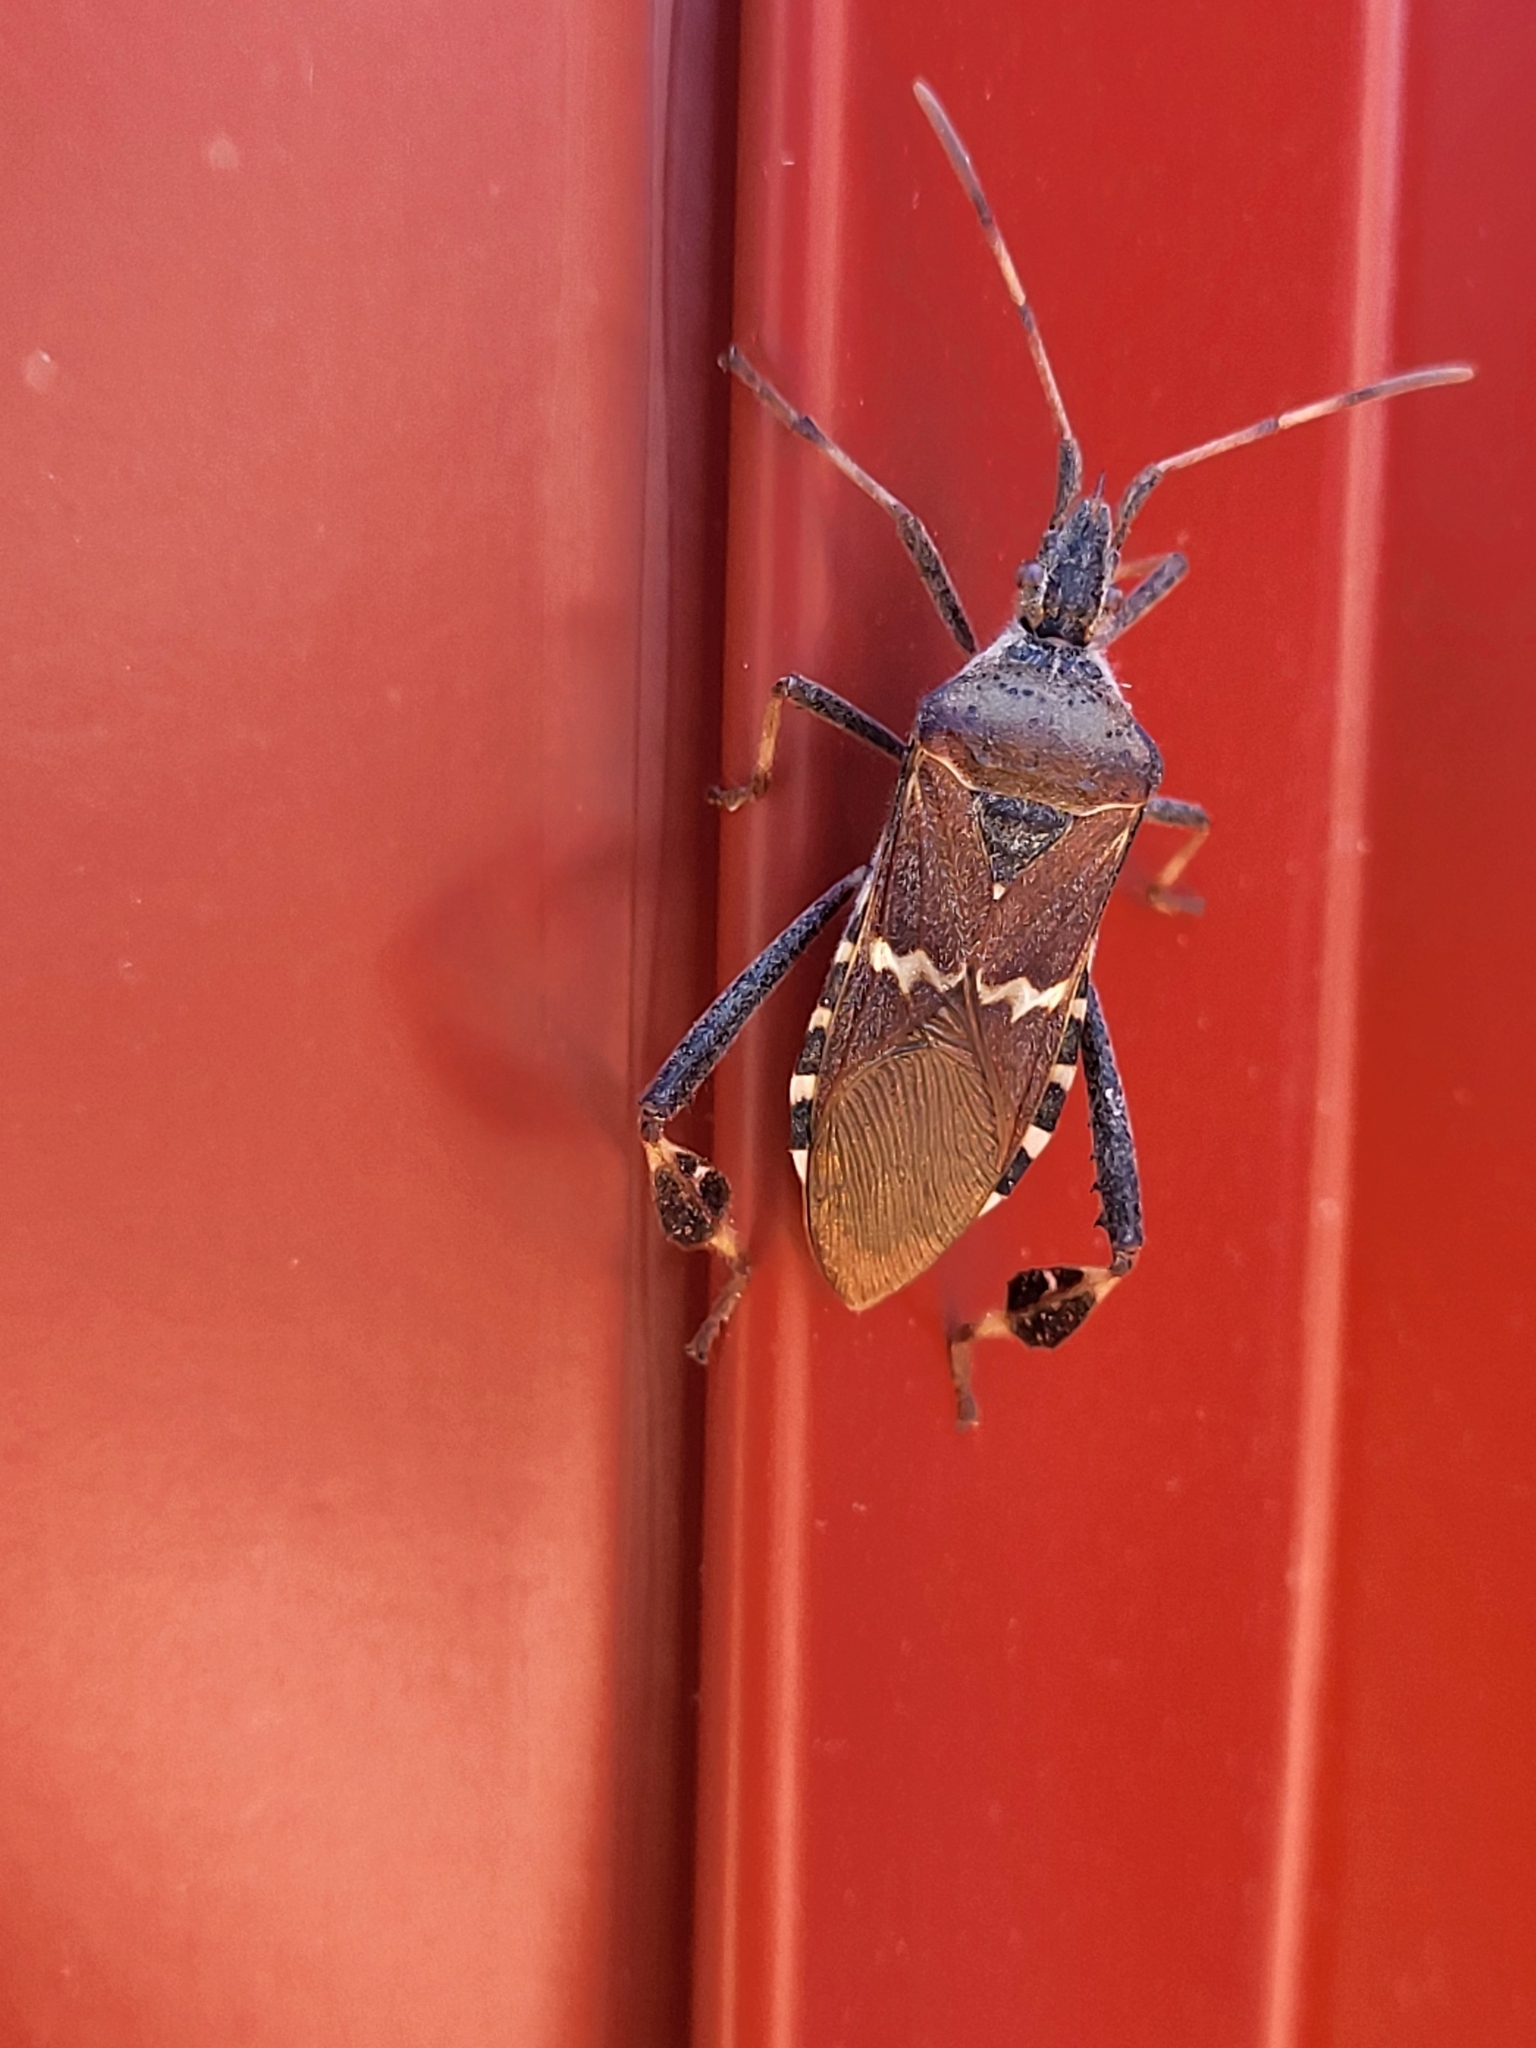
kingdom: Animalia
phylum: Arthropoda
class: Insecta
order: Hemiptera
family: Coreidae
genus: Leptoglossus
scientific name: Leptoglossus clypealis
